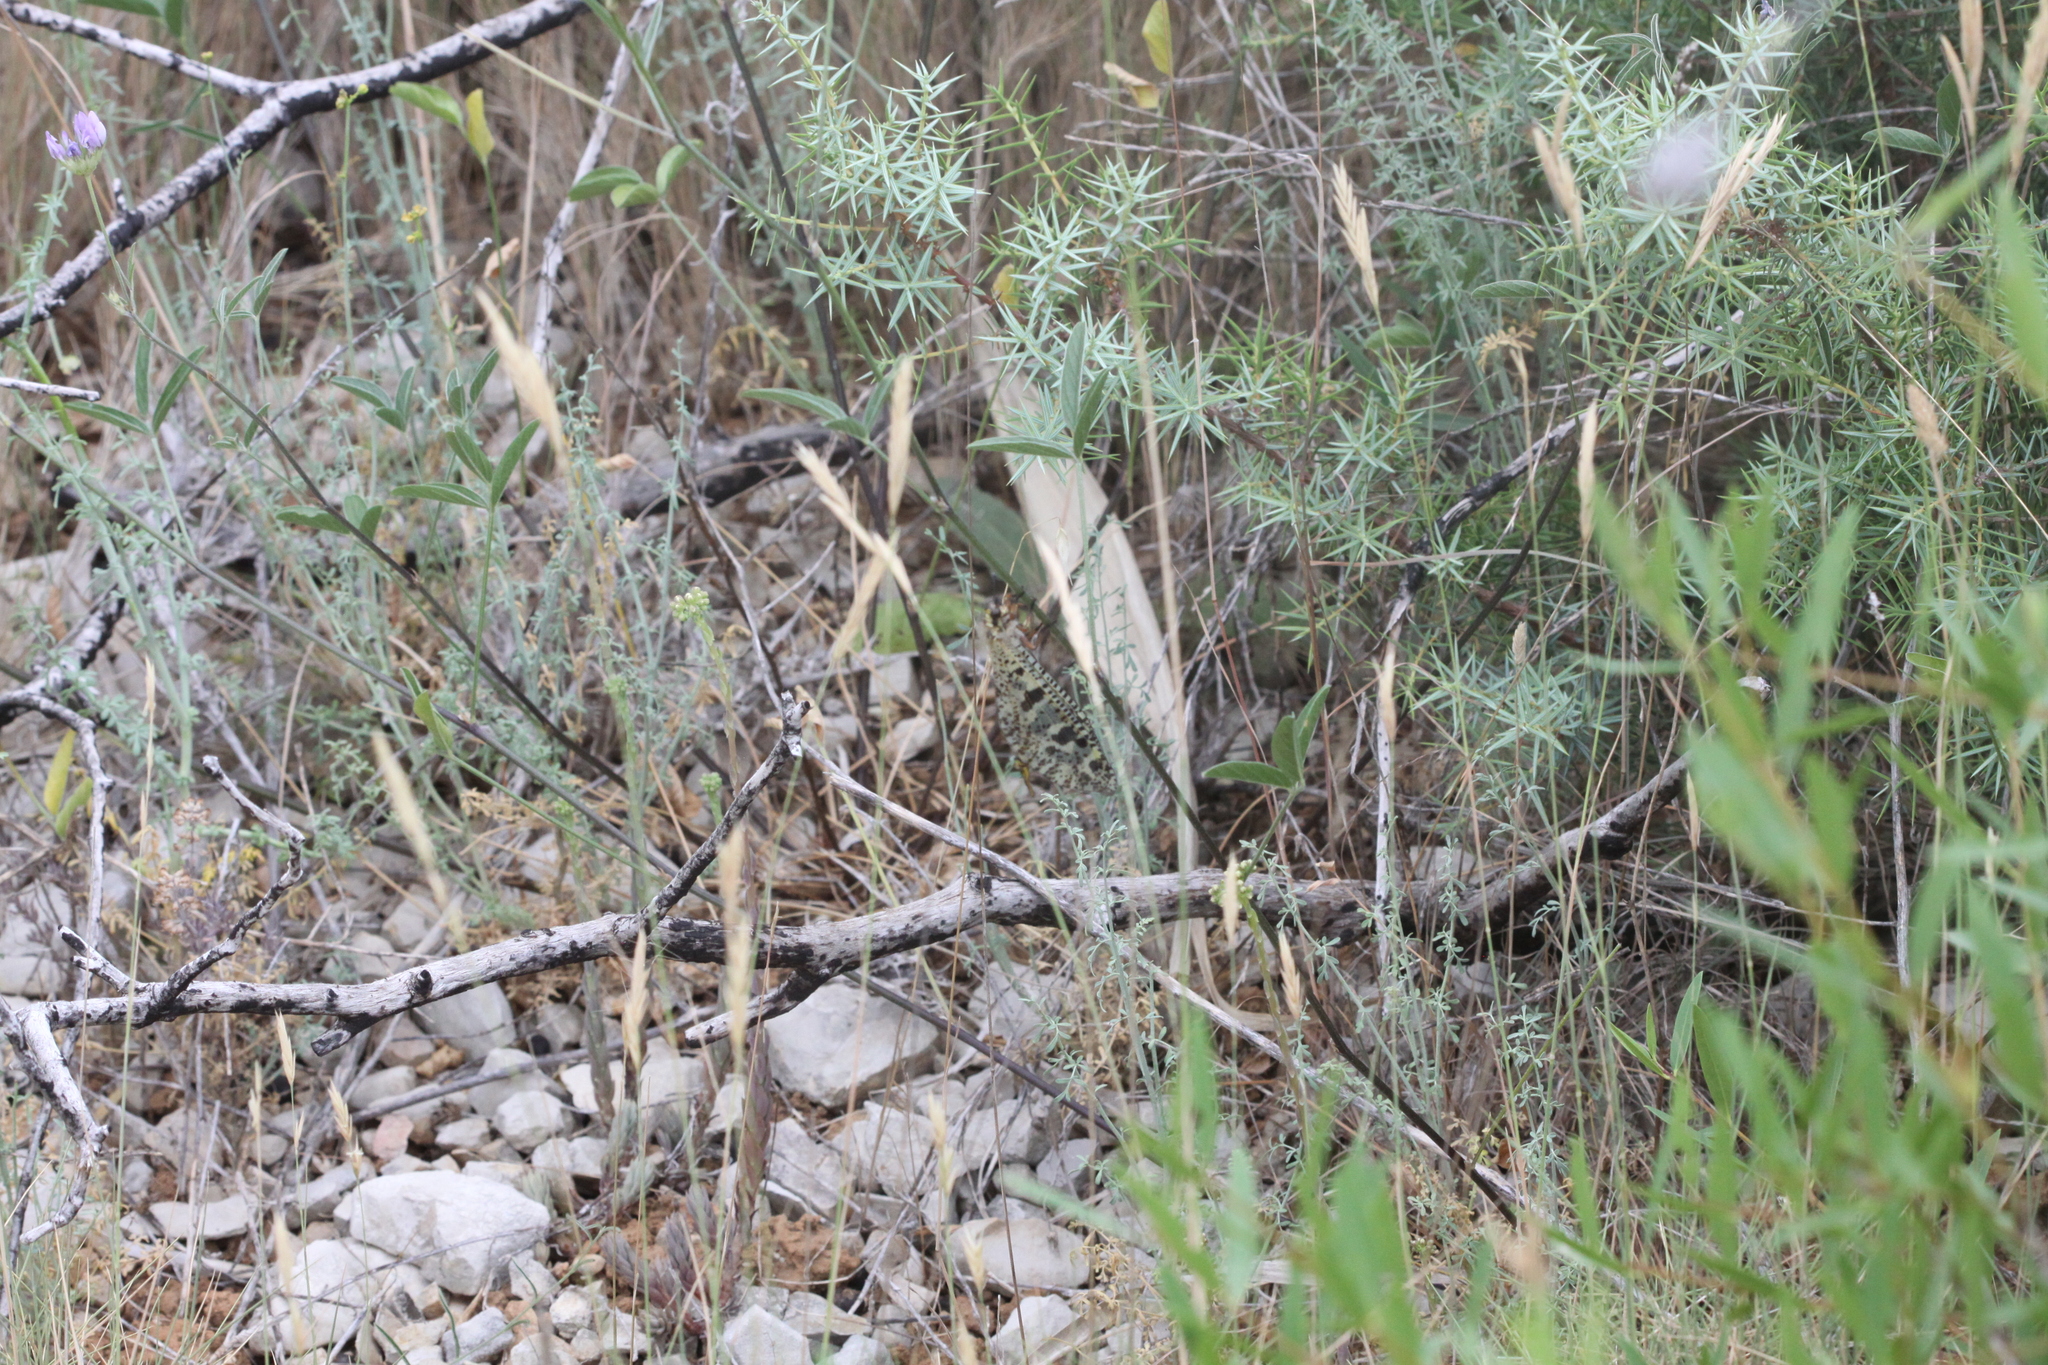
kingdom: Animalia
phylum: Arthropoda
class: Insecta
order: Neuroptera
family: Myrmeleontidae
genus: Palpares
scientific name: Palpares libelluloides
